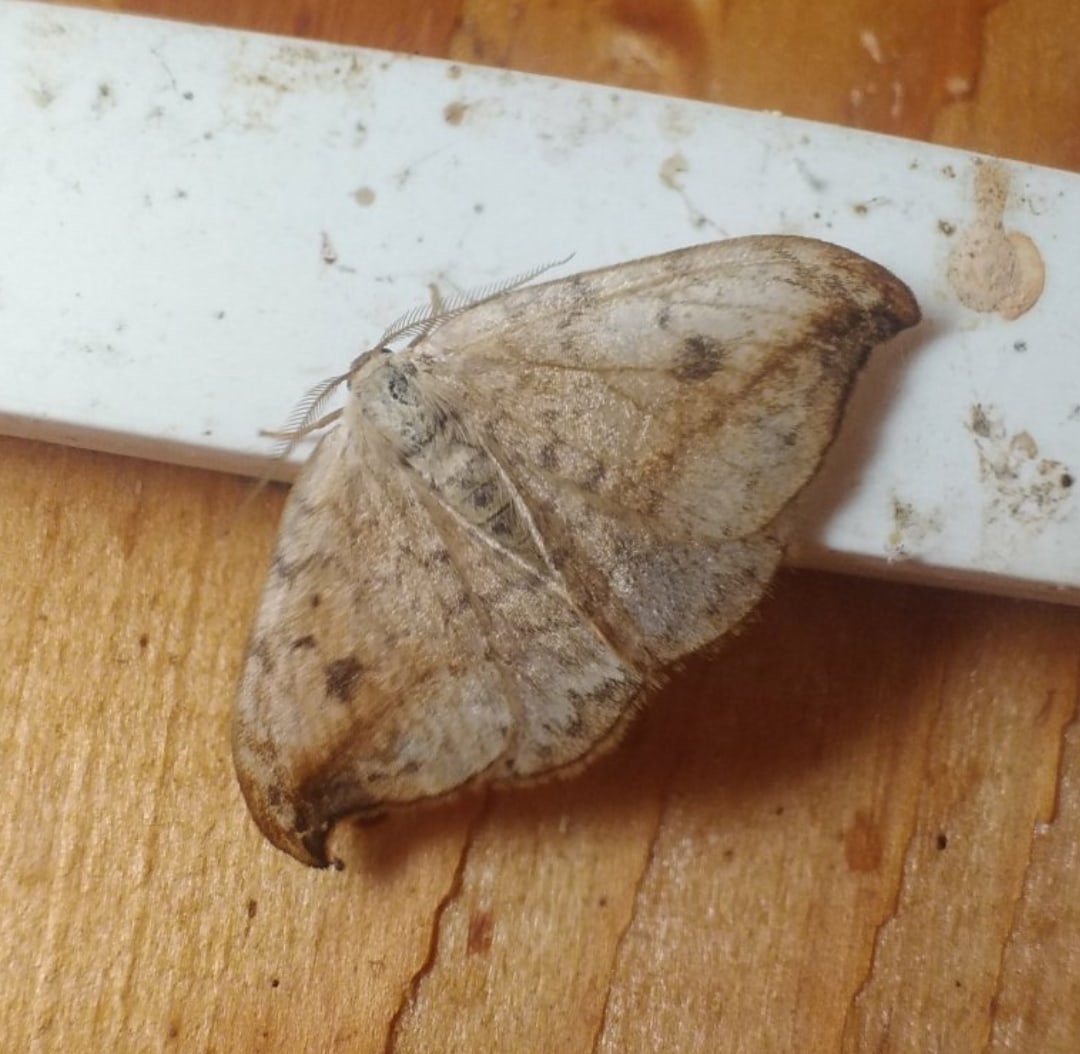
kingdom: Animalia
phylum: Arthropoda
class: Insecta
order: Lepidoptera
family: Drepanidae
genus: Drepana
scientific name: Drepana falcataria
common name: Pebble hook-tip
